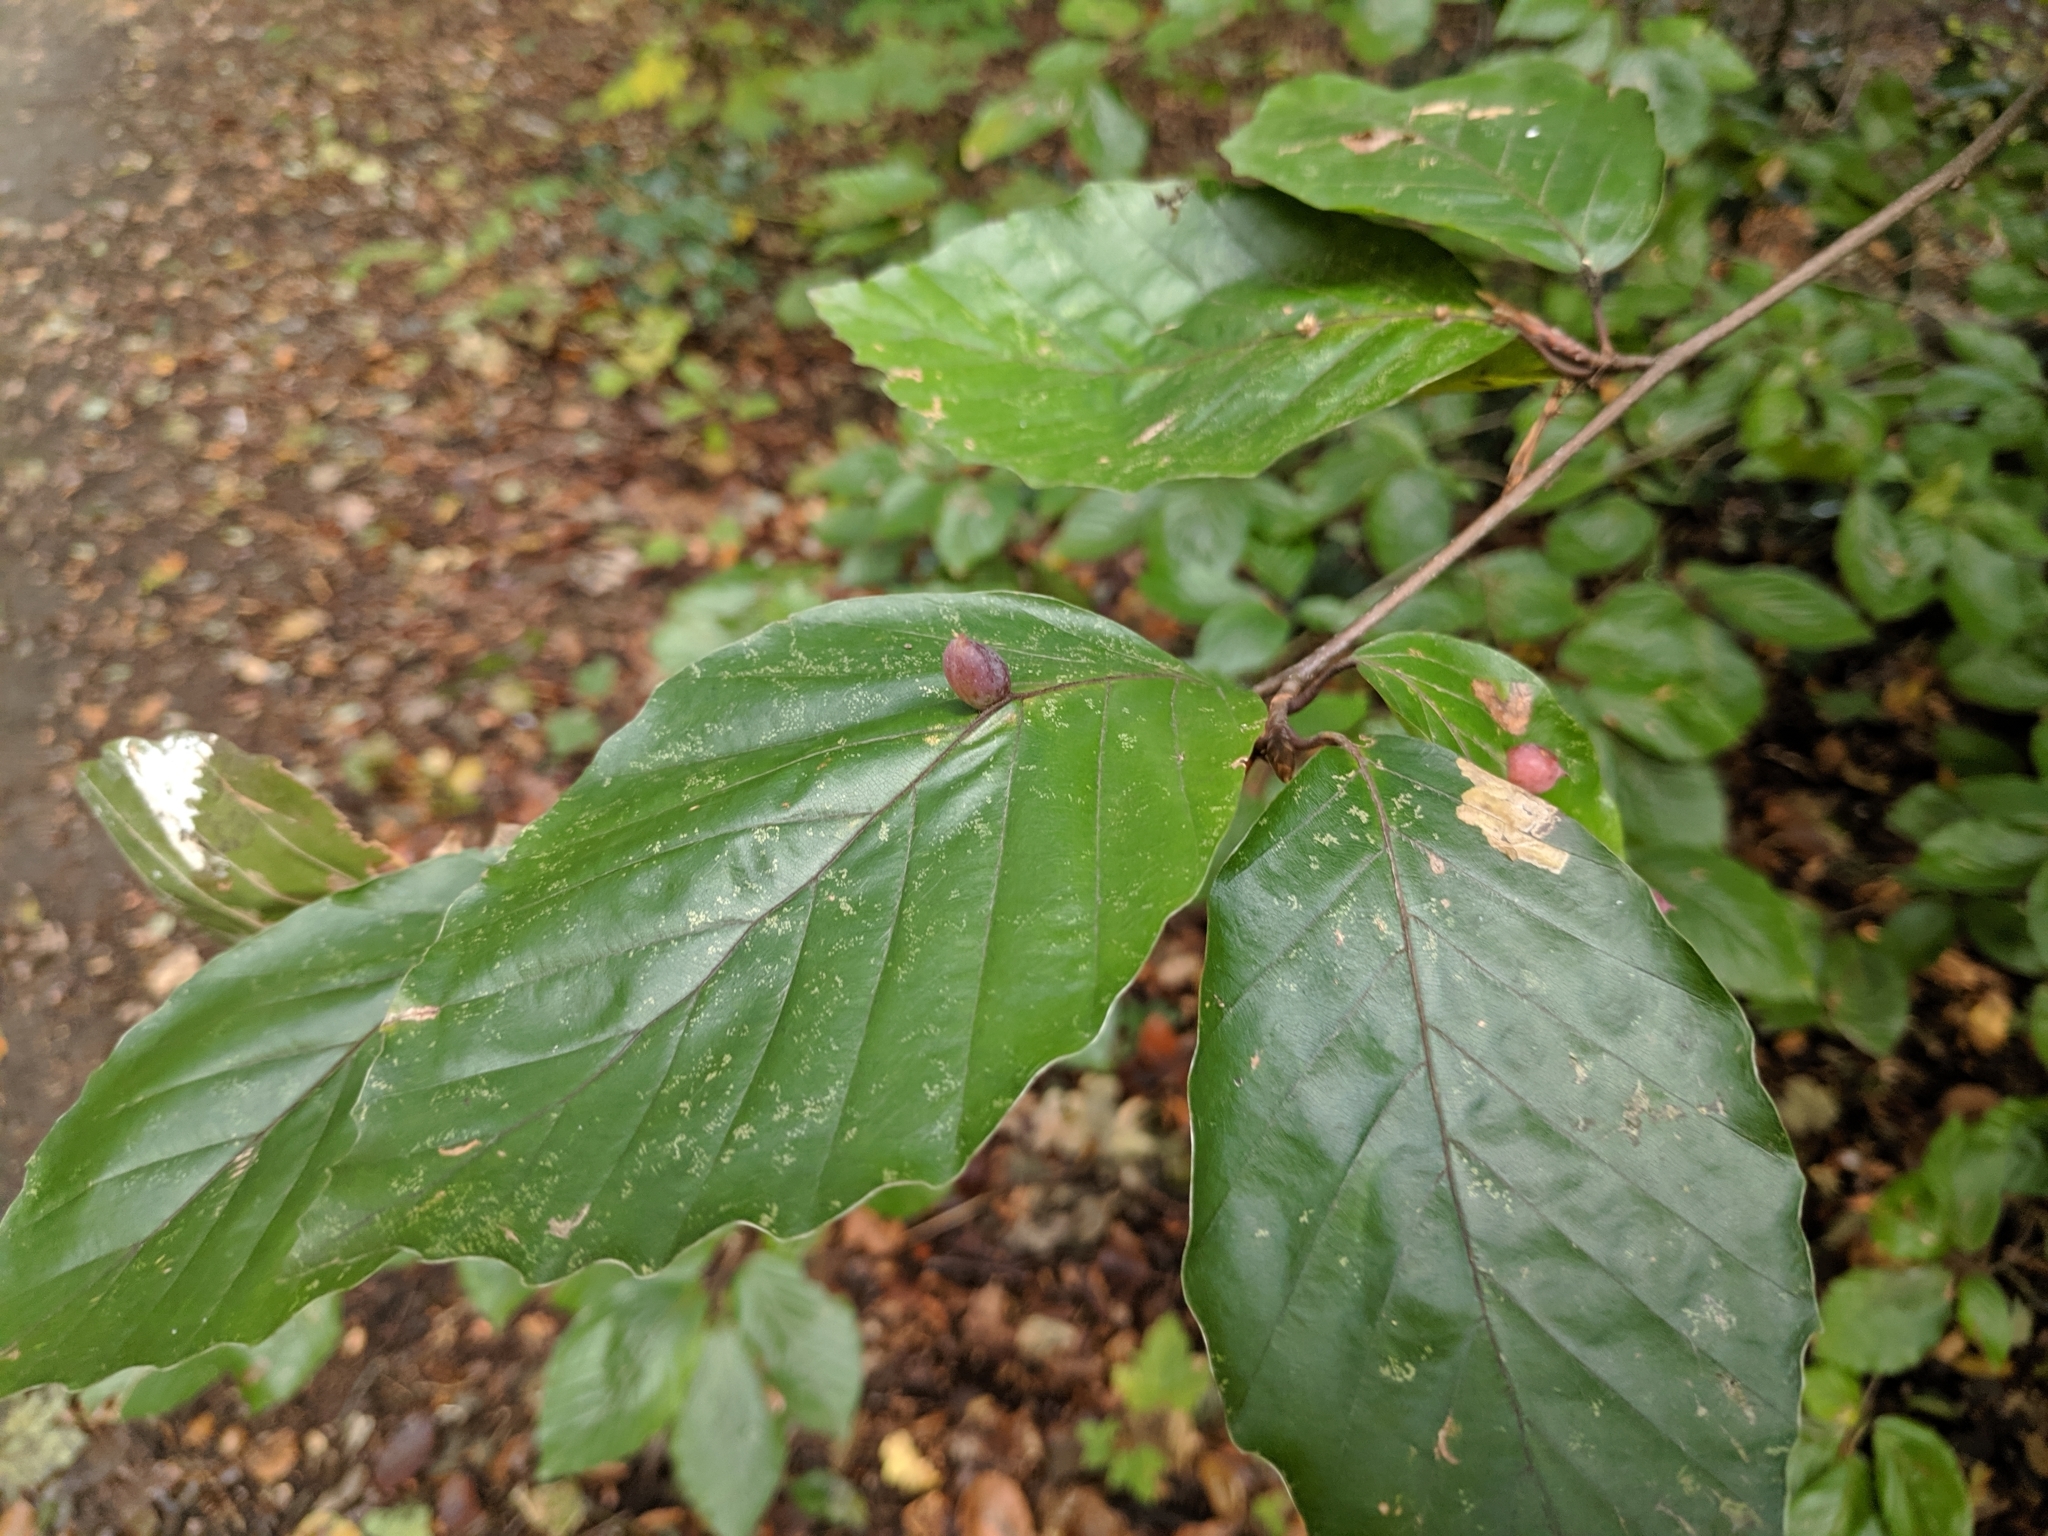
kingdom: Animalia
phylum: Arthropoda
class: Insecta
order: Diptera
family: Cecidomyiidae
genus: Mikiola
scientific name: Mikiola fagi
